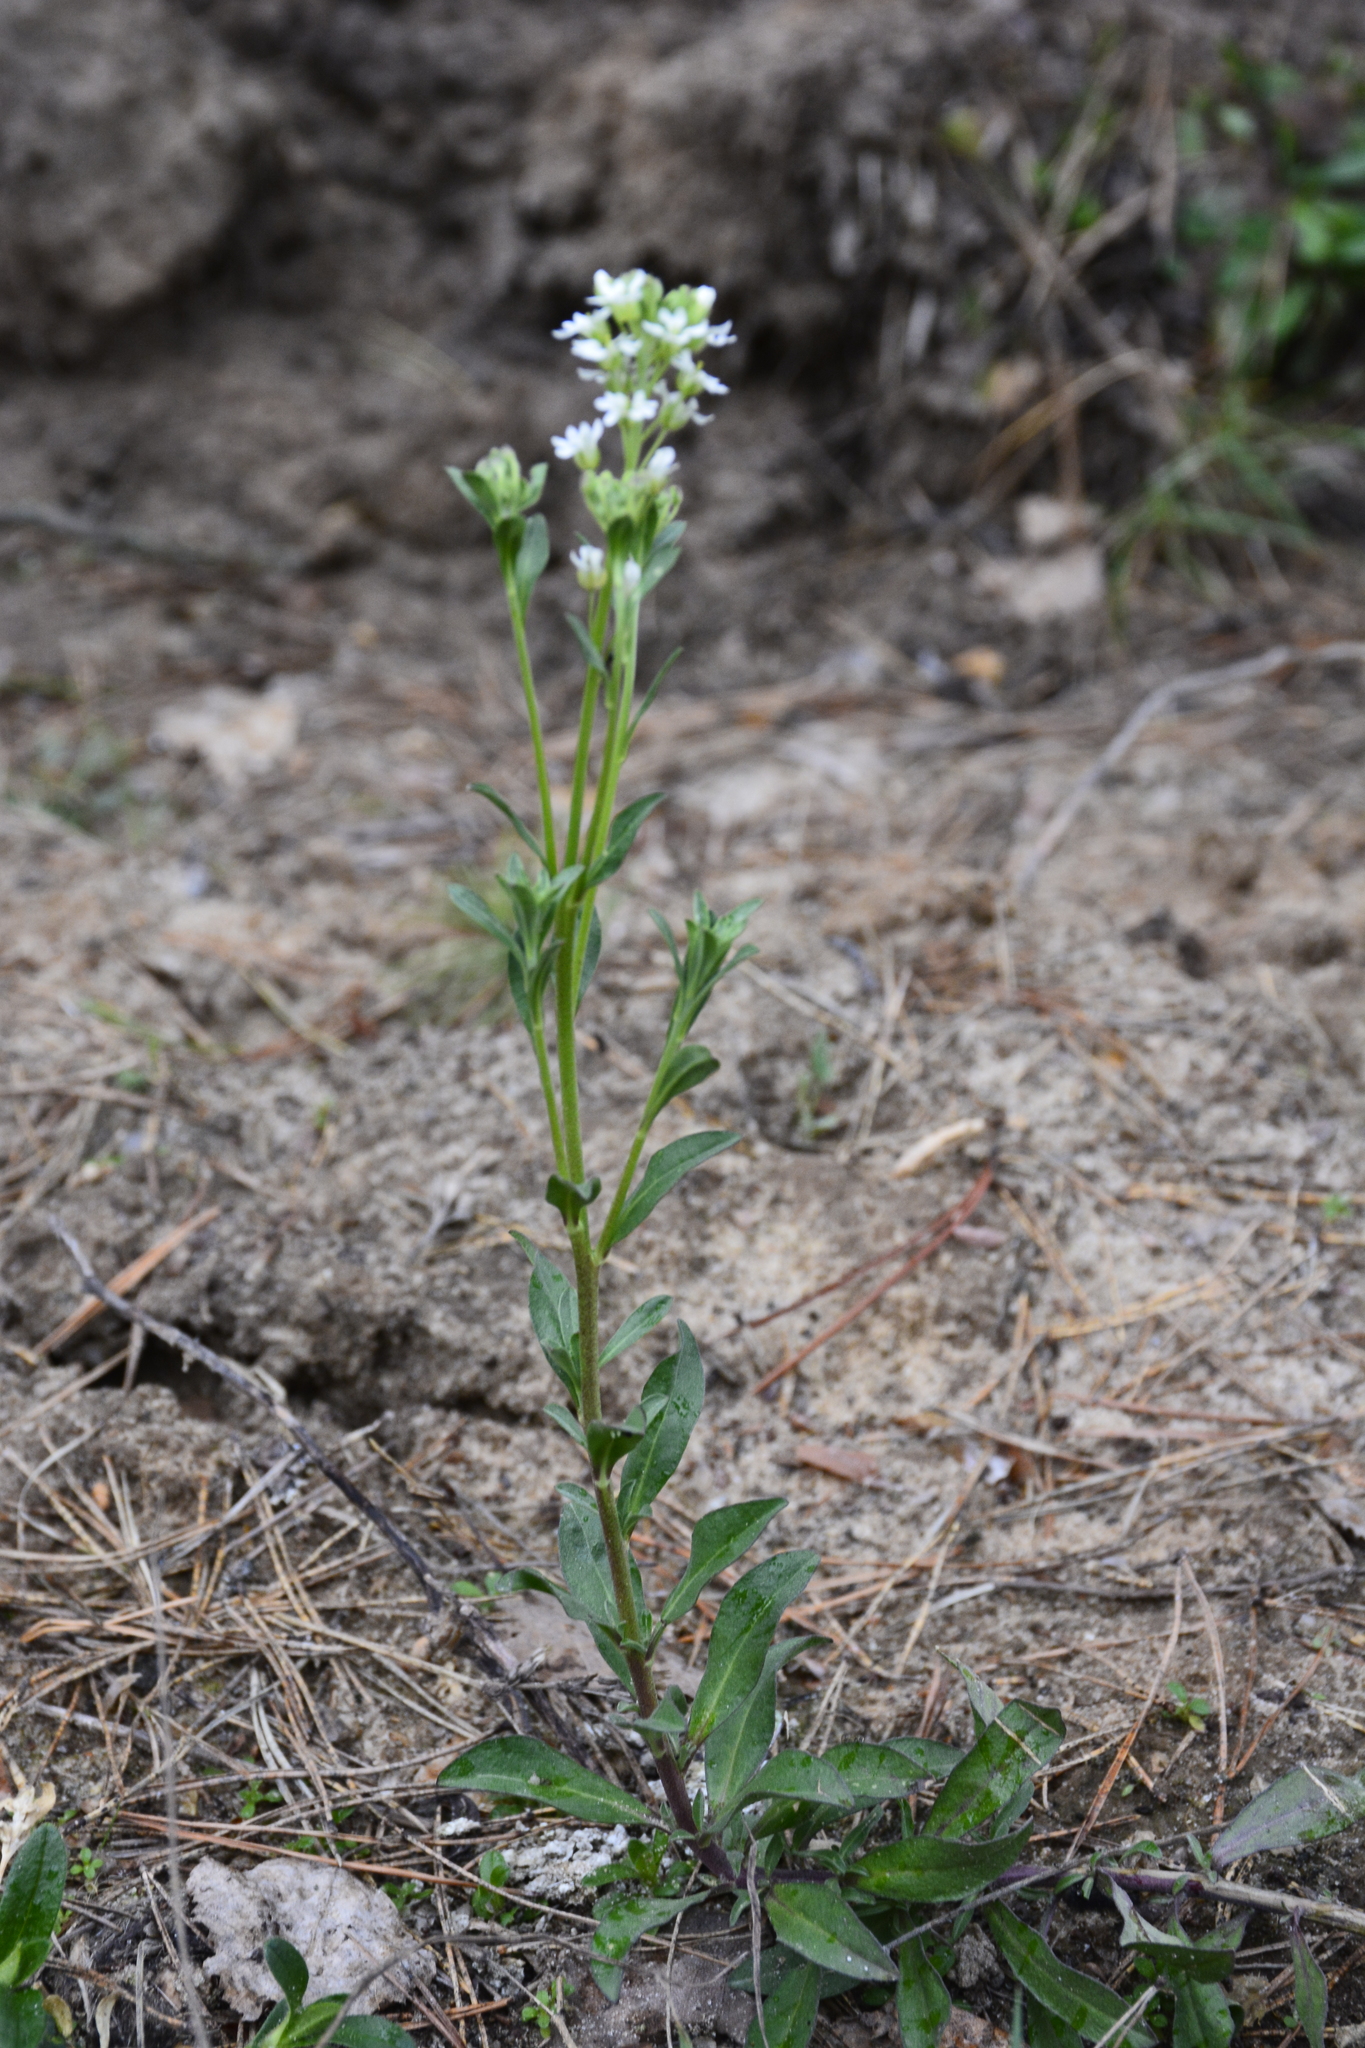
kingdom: Plantae
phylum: Tracheophyta
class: Magnoliopsida
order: Brassicales
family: Brassicaceae
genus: Berteroa
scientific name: Berteroa incana
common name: Hoary alison
